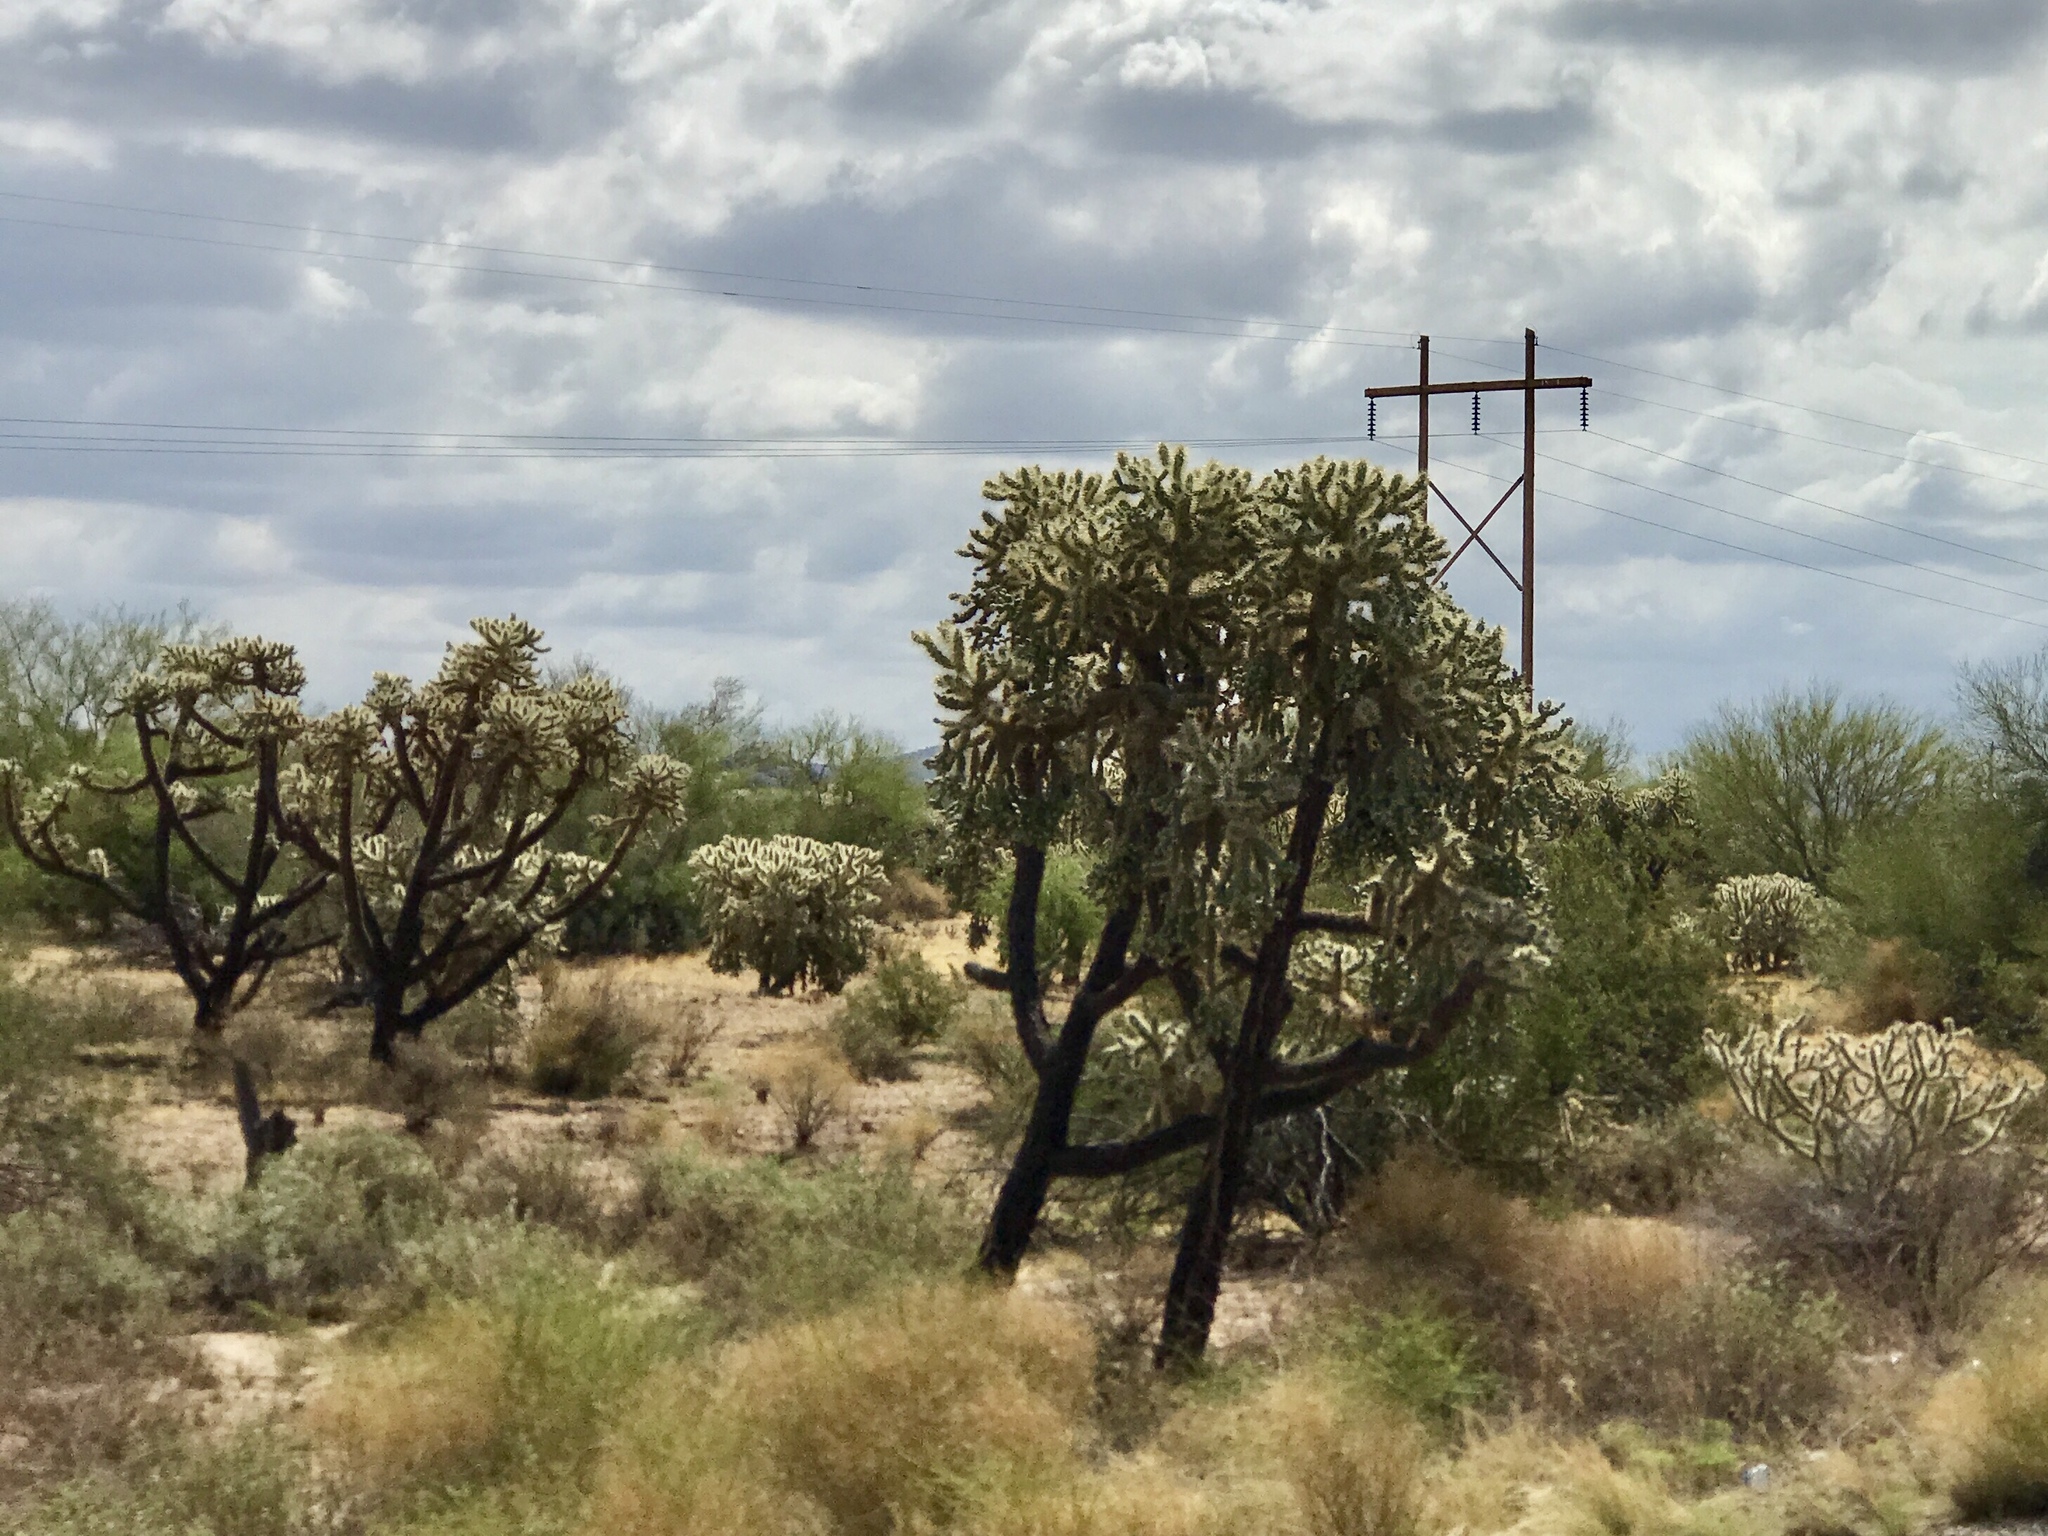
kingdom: Plantae
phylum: Tracheophyta
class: Magnoliopsida
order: Caryophyllales
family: Cactaceae
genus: Cylindropuntia
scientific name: Cylindropuntia fulgida
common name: Jumping cholla
